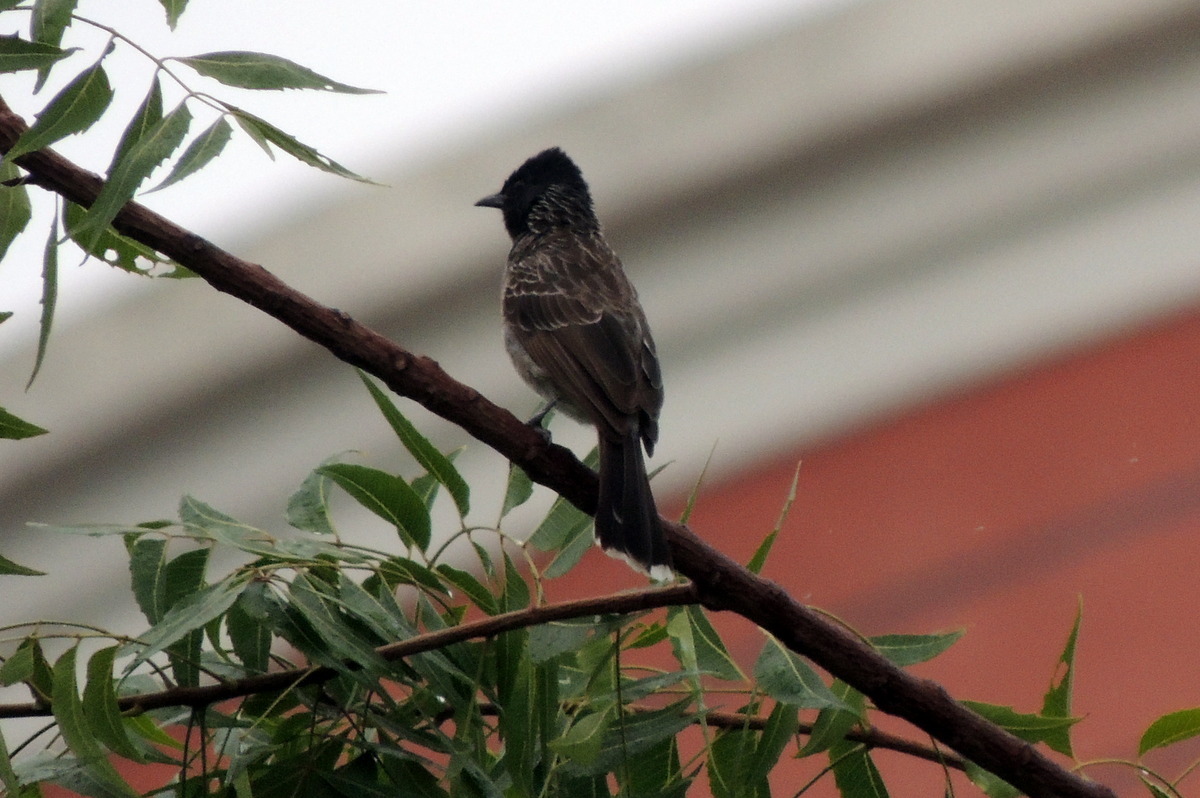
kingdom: Animalia
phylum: Chordata
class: Aves
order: Passeriformes
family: Pycnonotidae
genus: Pycnonotus
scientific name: Pycnonotus cafer
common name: Red-vented bulbul
